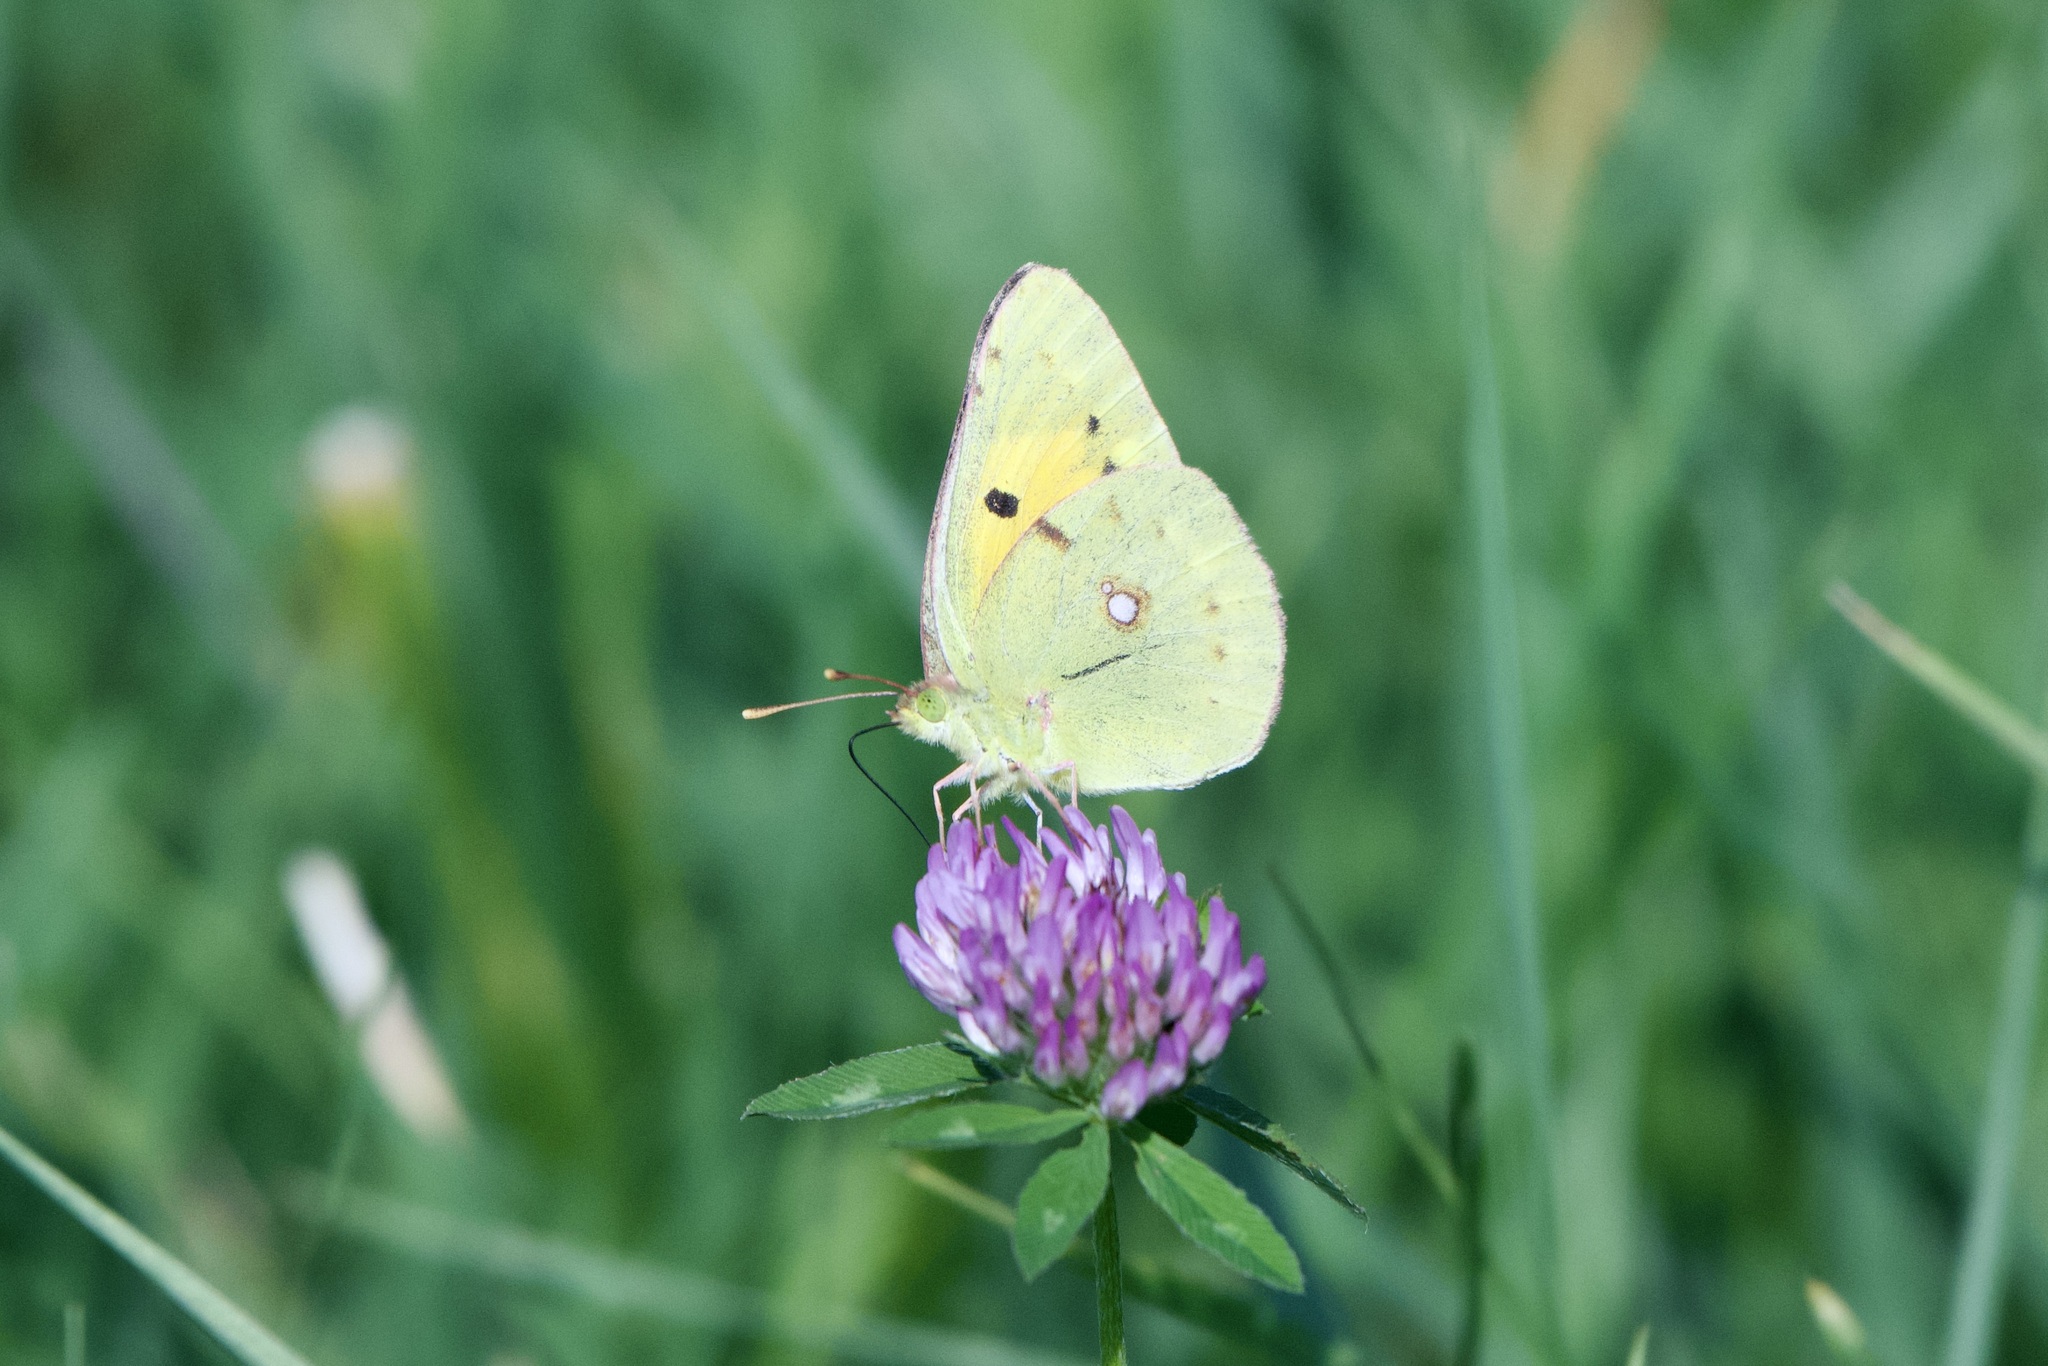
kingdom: Animalia
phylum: Arthropoda
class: Insecta
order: Lepidoptera
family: Pieridae
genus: Colias
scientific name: Colias croceus
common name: Clouded yellow
